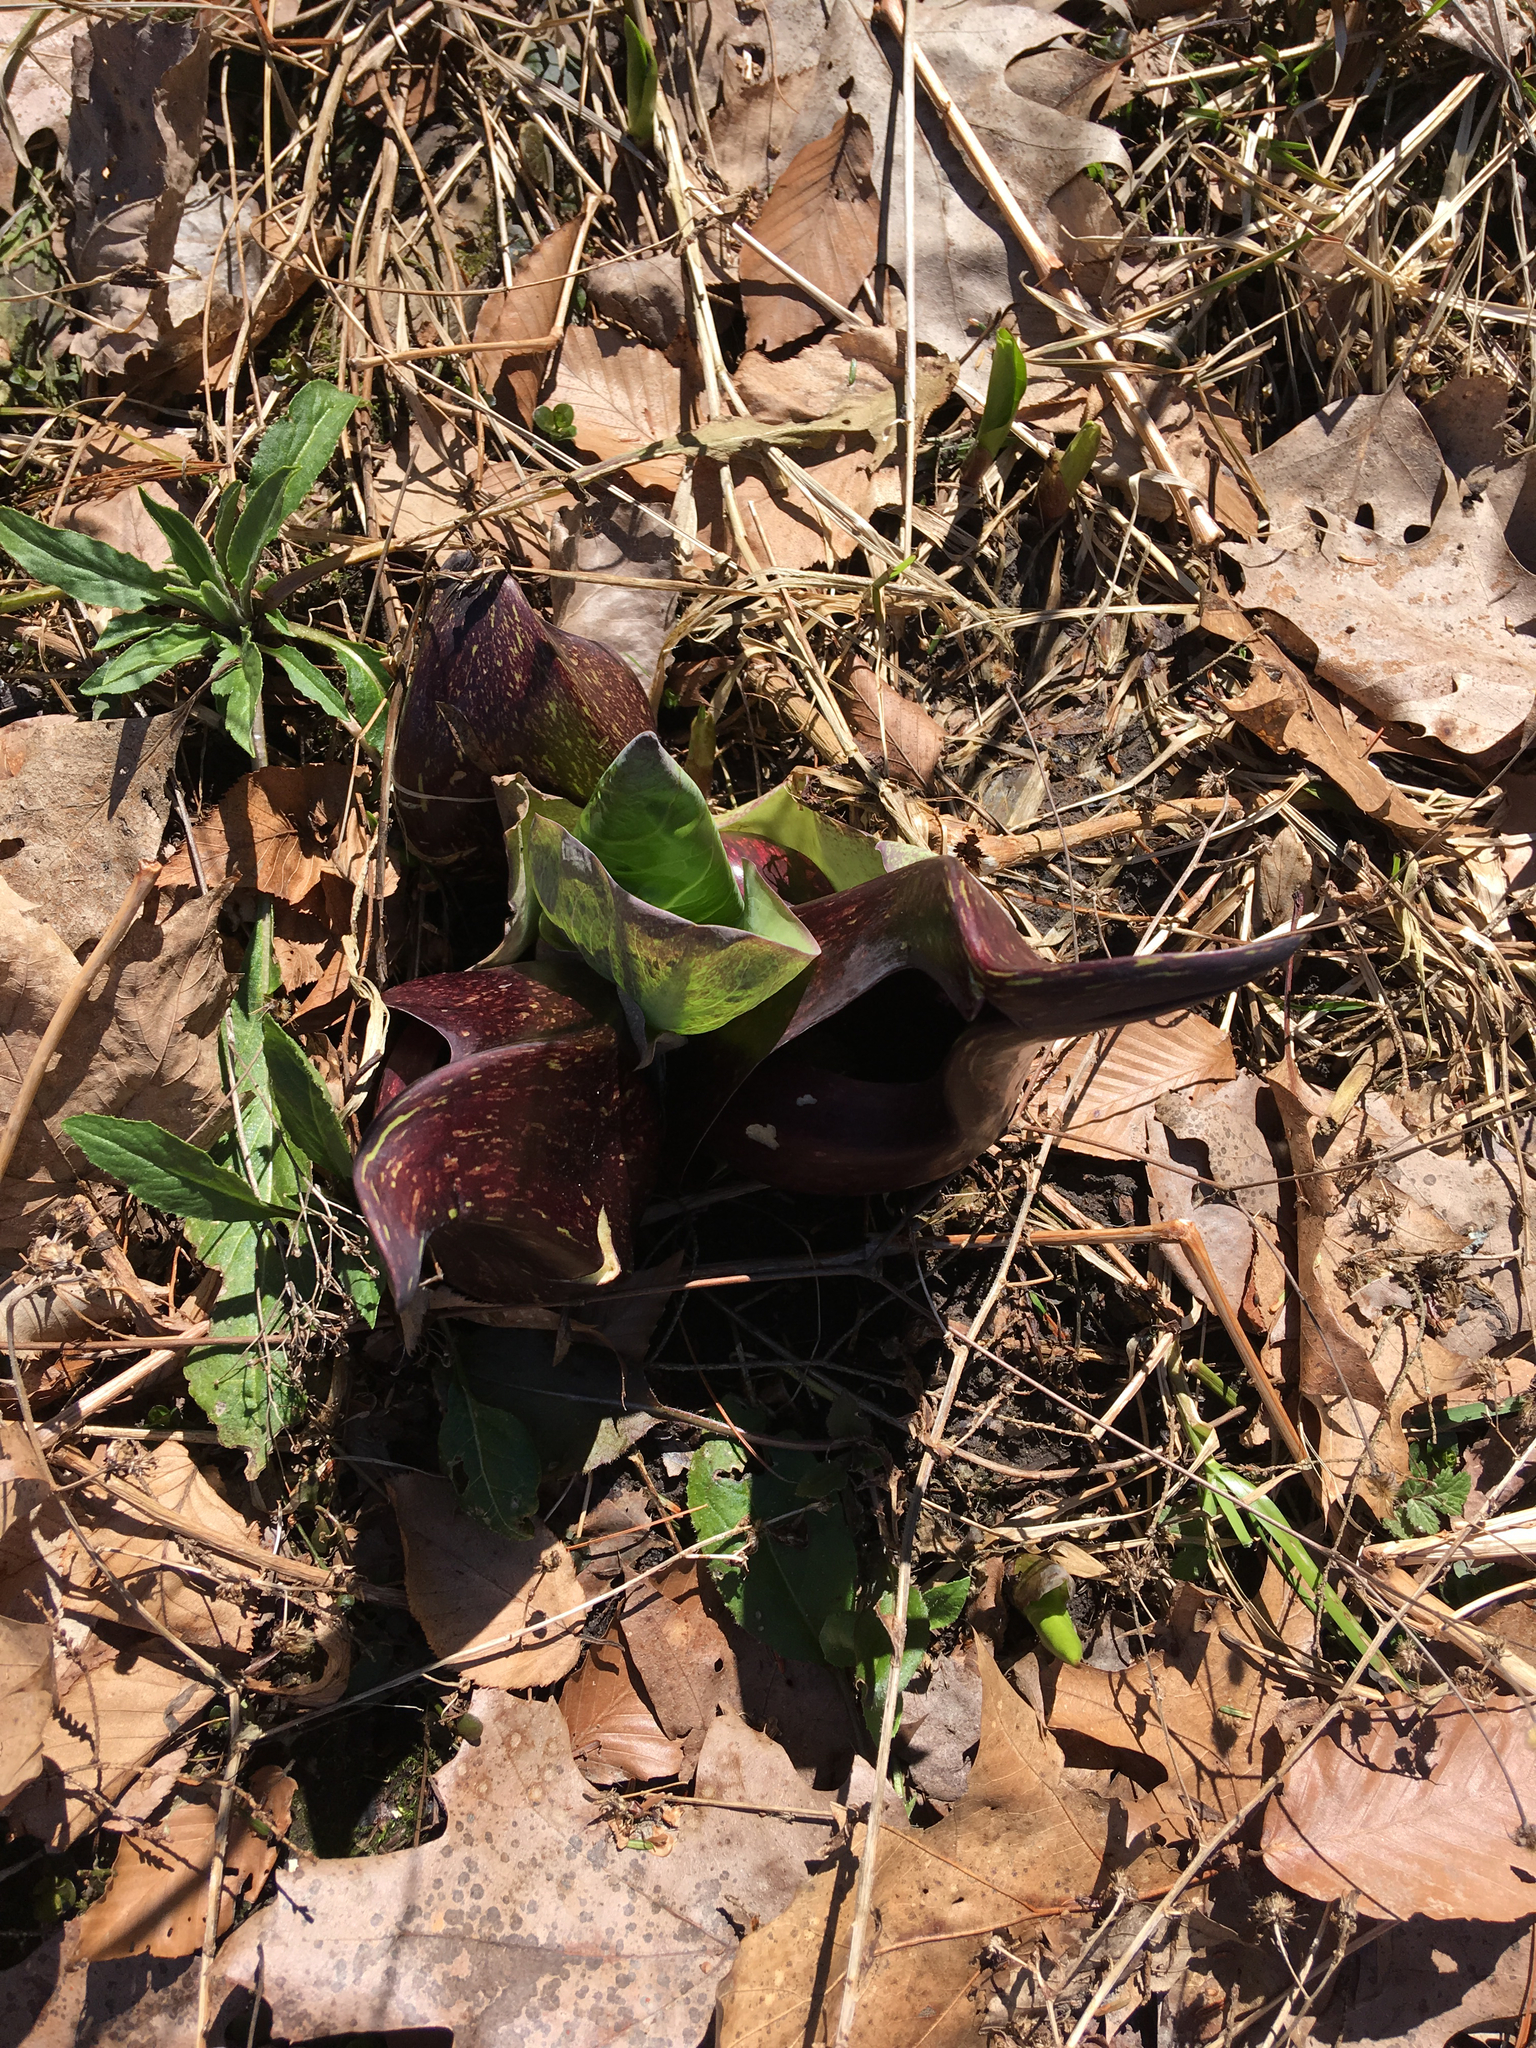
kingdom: Plantae
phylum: Tracheophyta
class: Liliopsida
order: Alismatales
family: Araceae
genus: Symplocarpus
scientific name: Symplocarpus foetidus
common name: Eastern skunk cabbage
